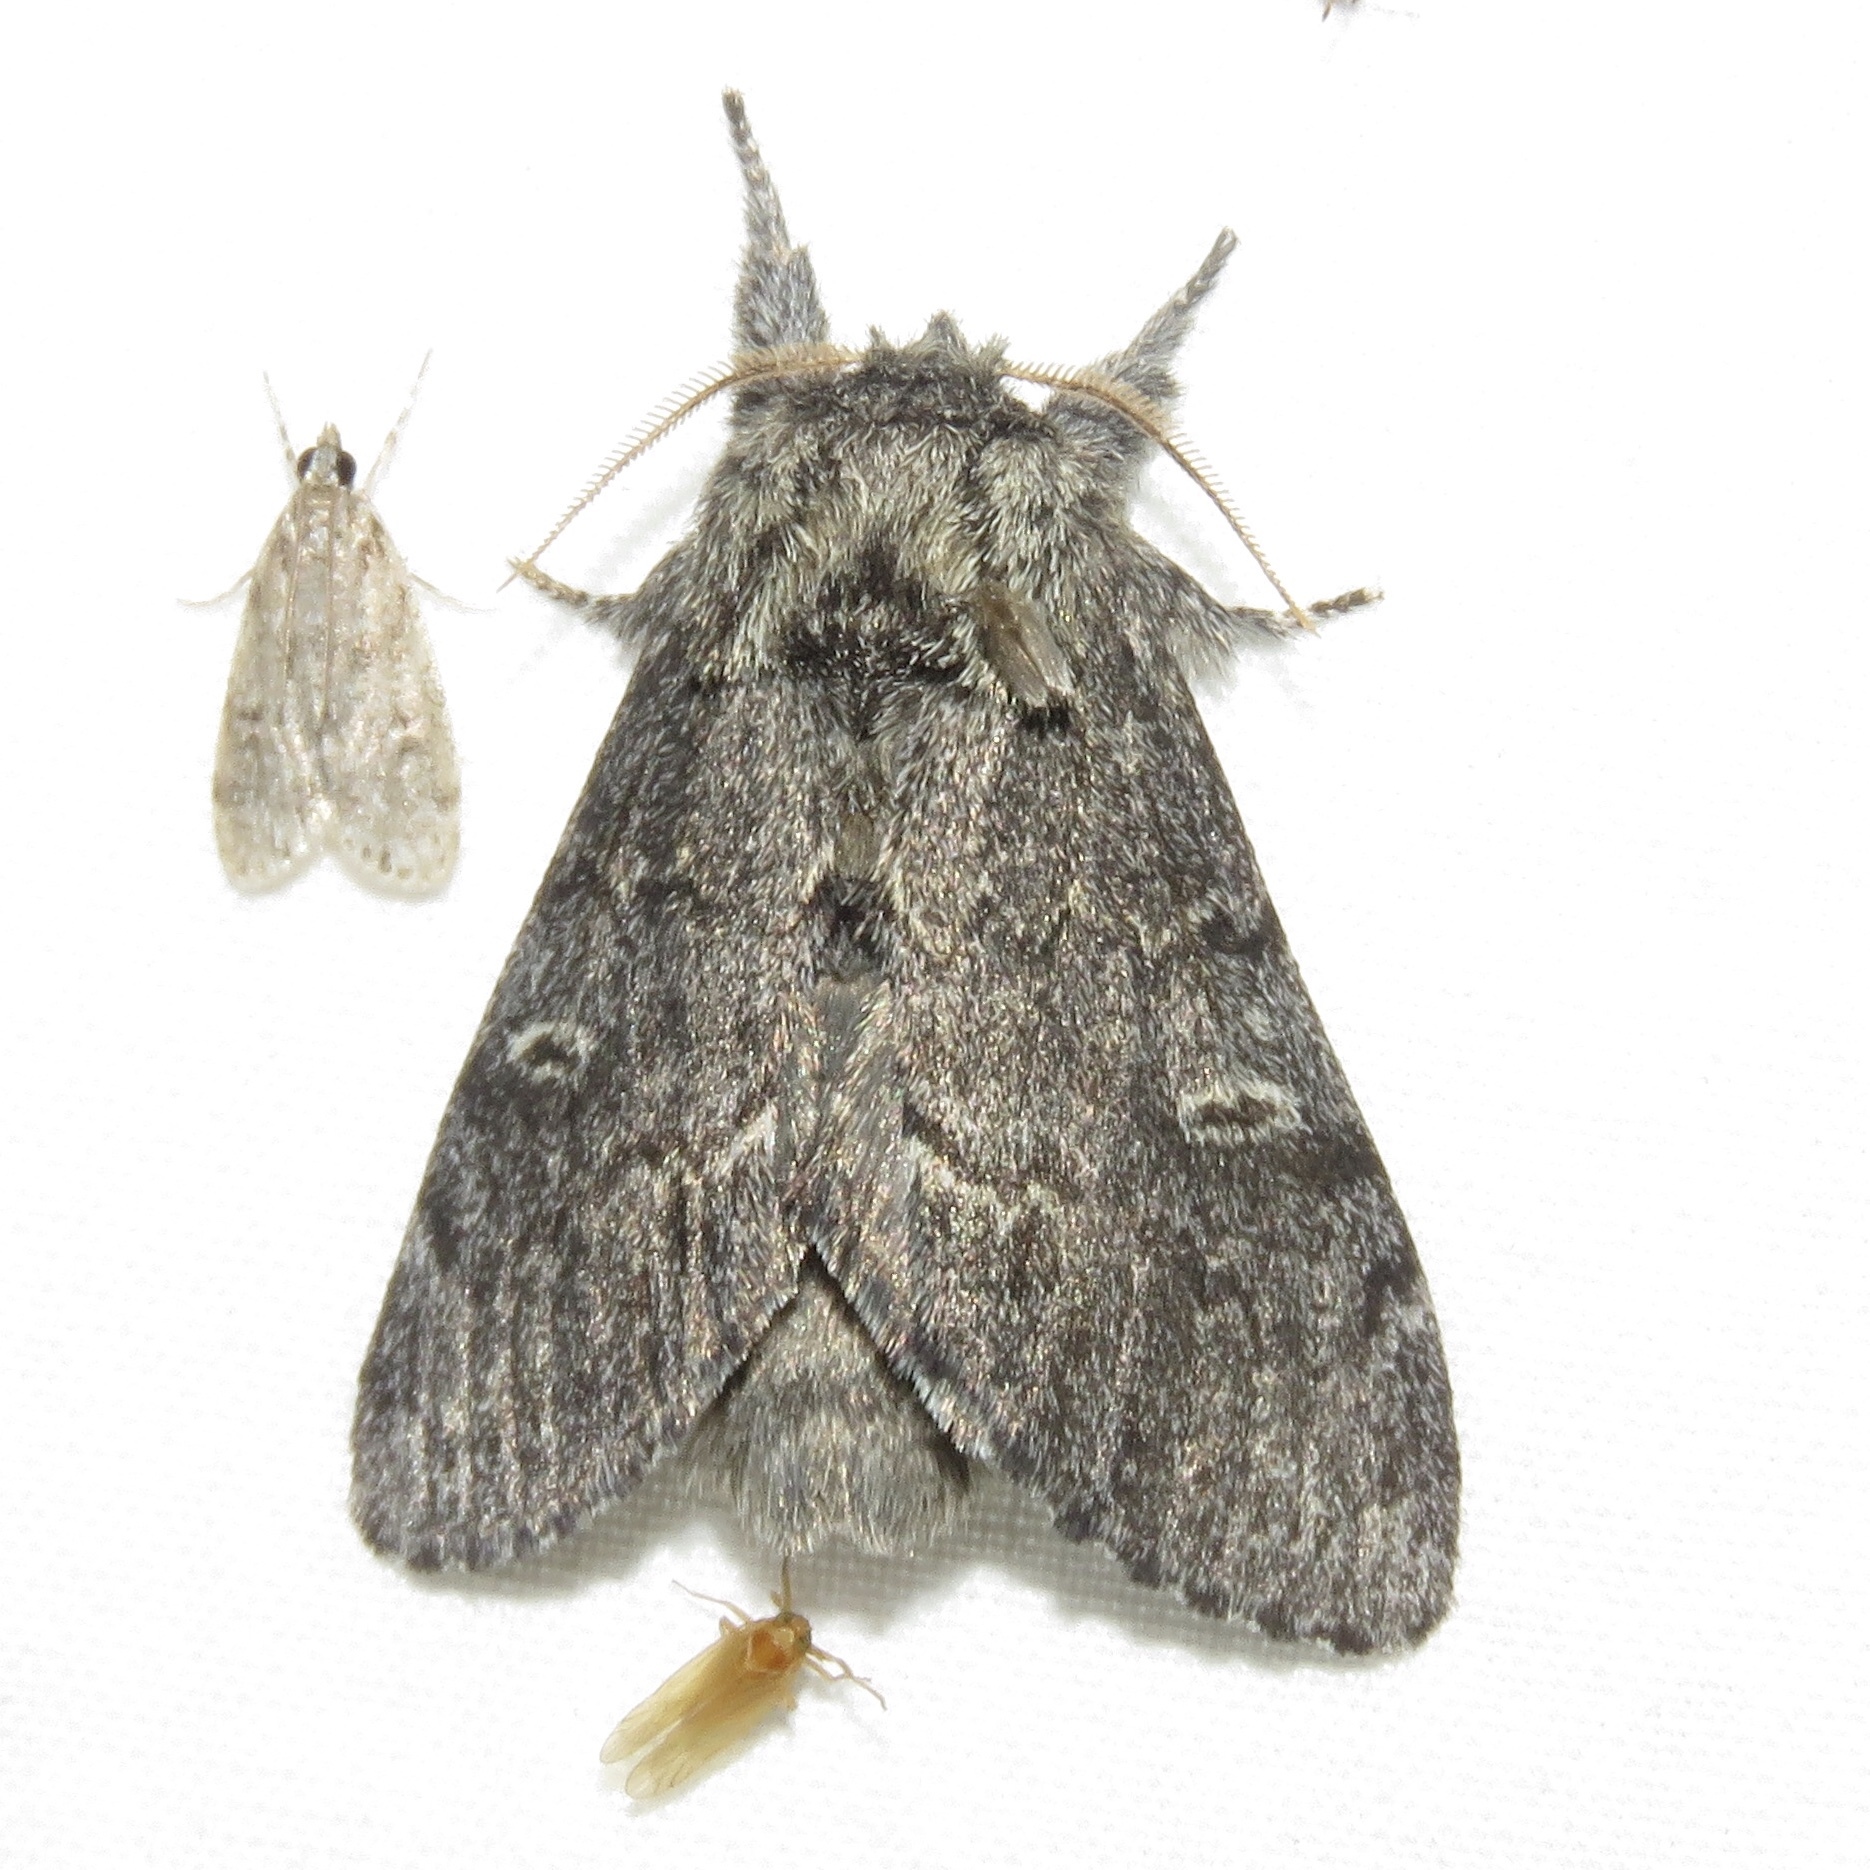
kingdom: Animalia
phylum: Arthropoda
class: Insecta
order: Lepidoptera
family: Notodontidae
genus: Notodonta
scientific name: Notodonta torva
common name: Large dark prominent
